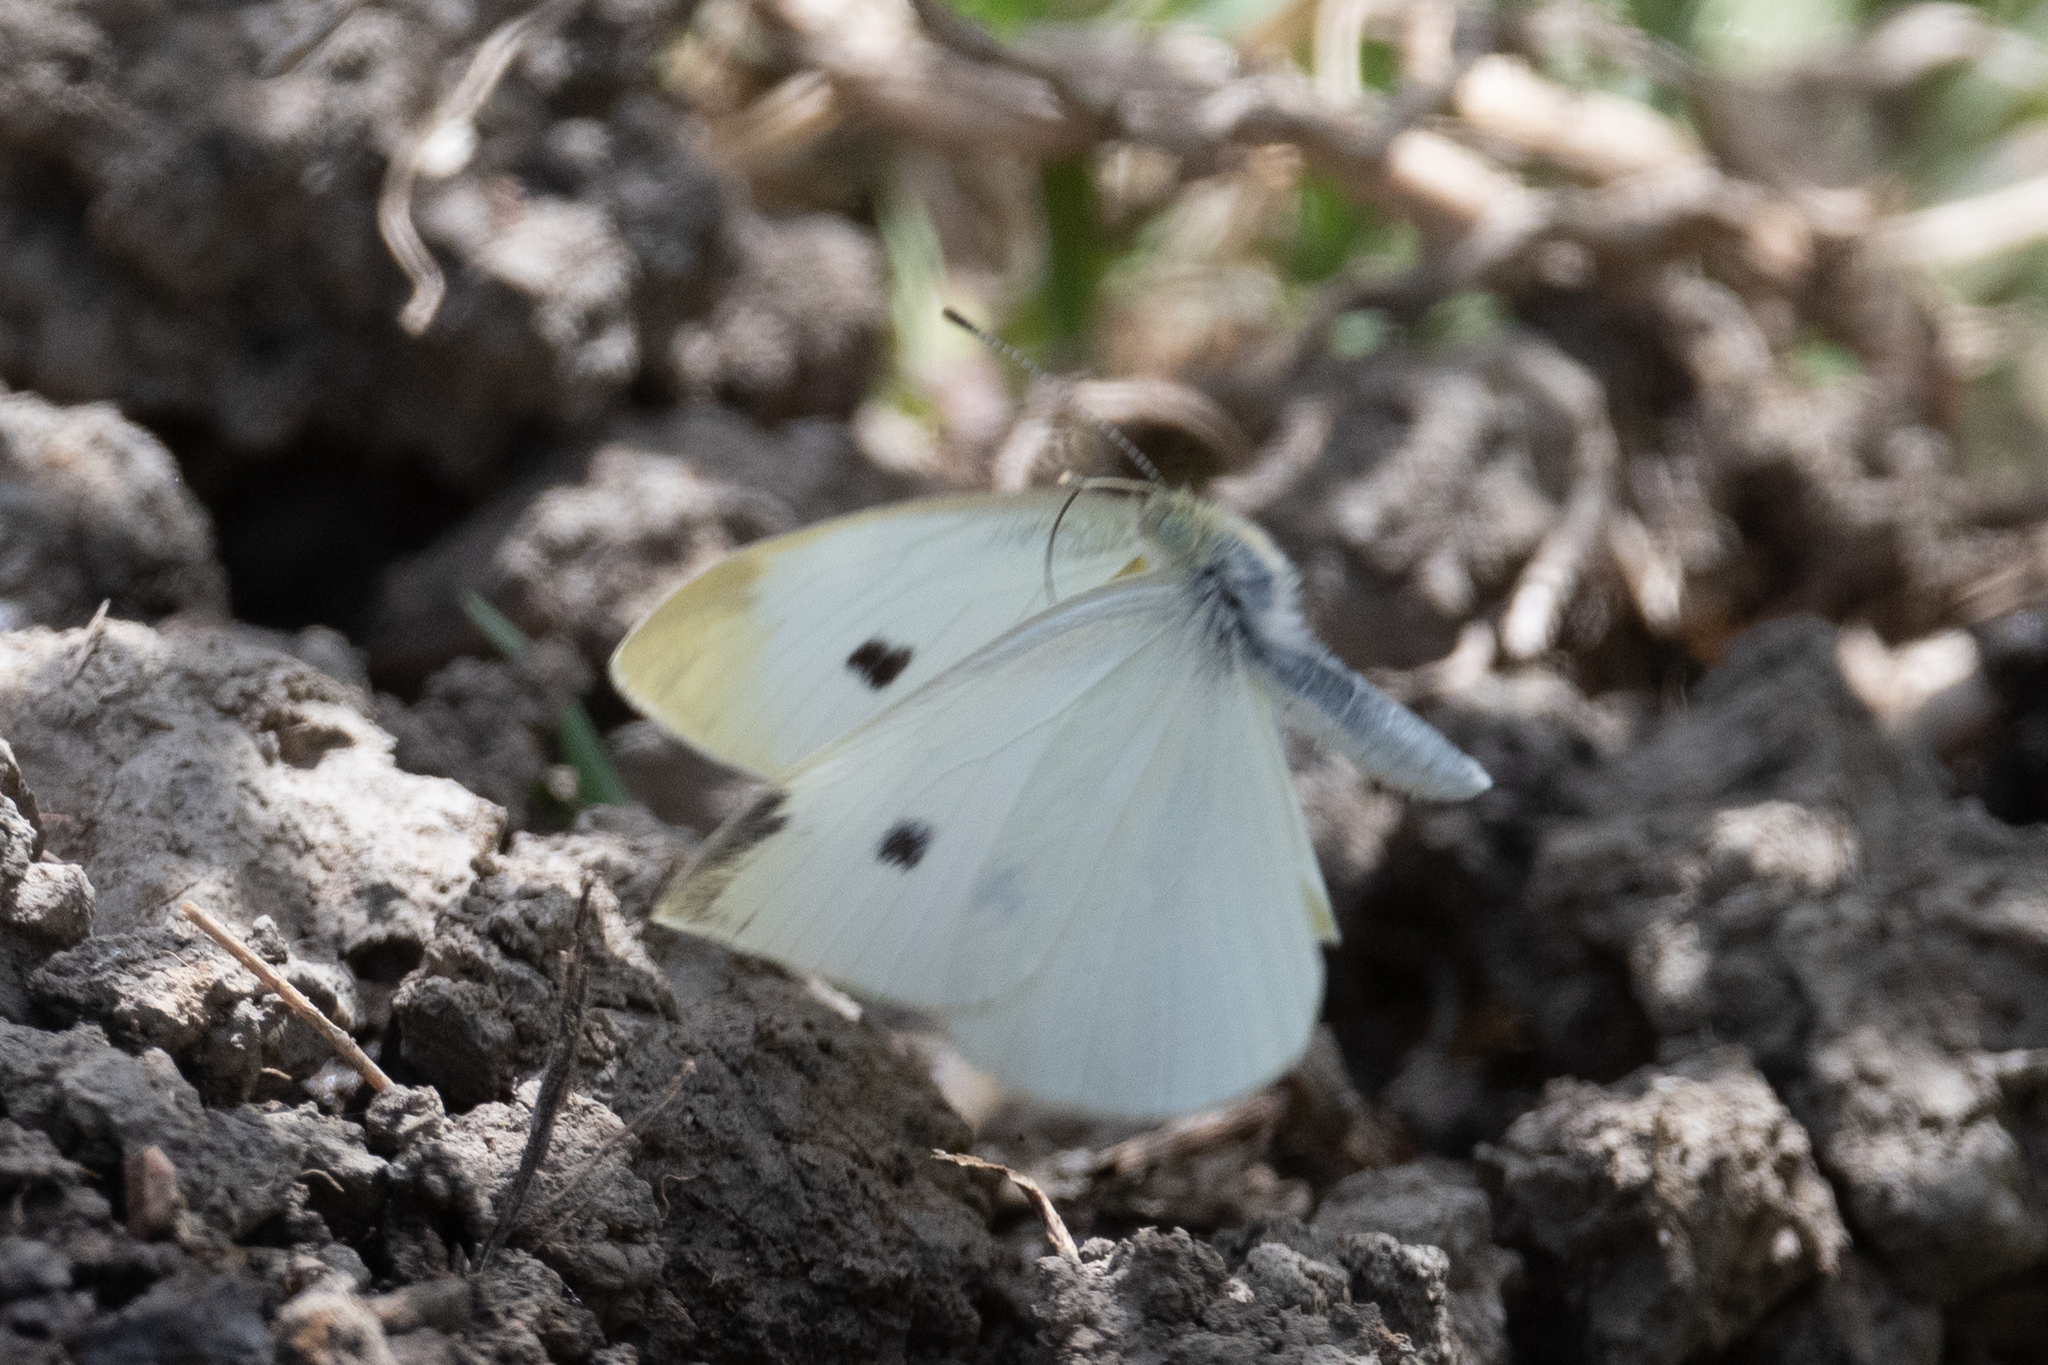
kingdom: Animalia
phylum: Arthropoda
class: Insecta
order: Lepidoptera
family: Pieridae
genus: Pieris
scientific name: Pieris rapae
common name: Small white
